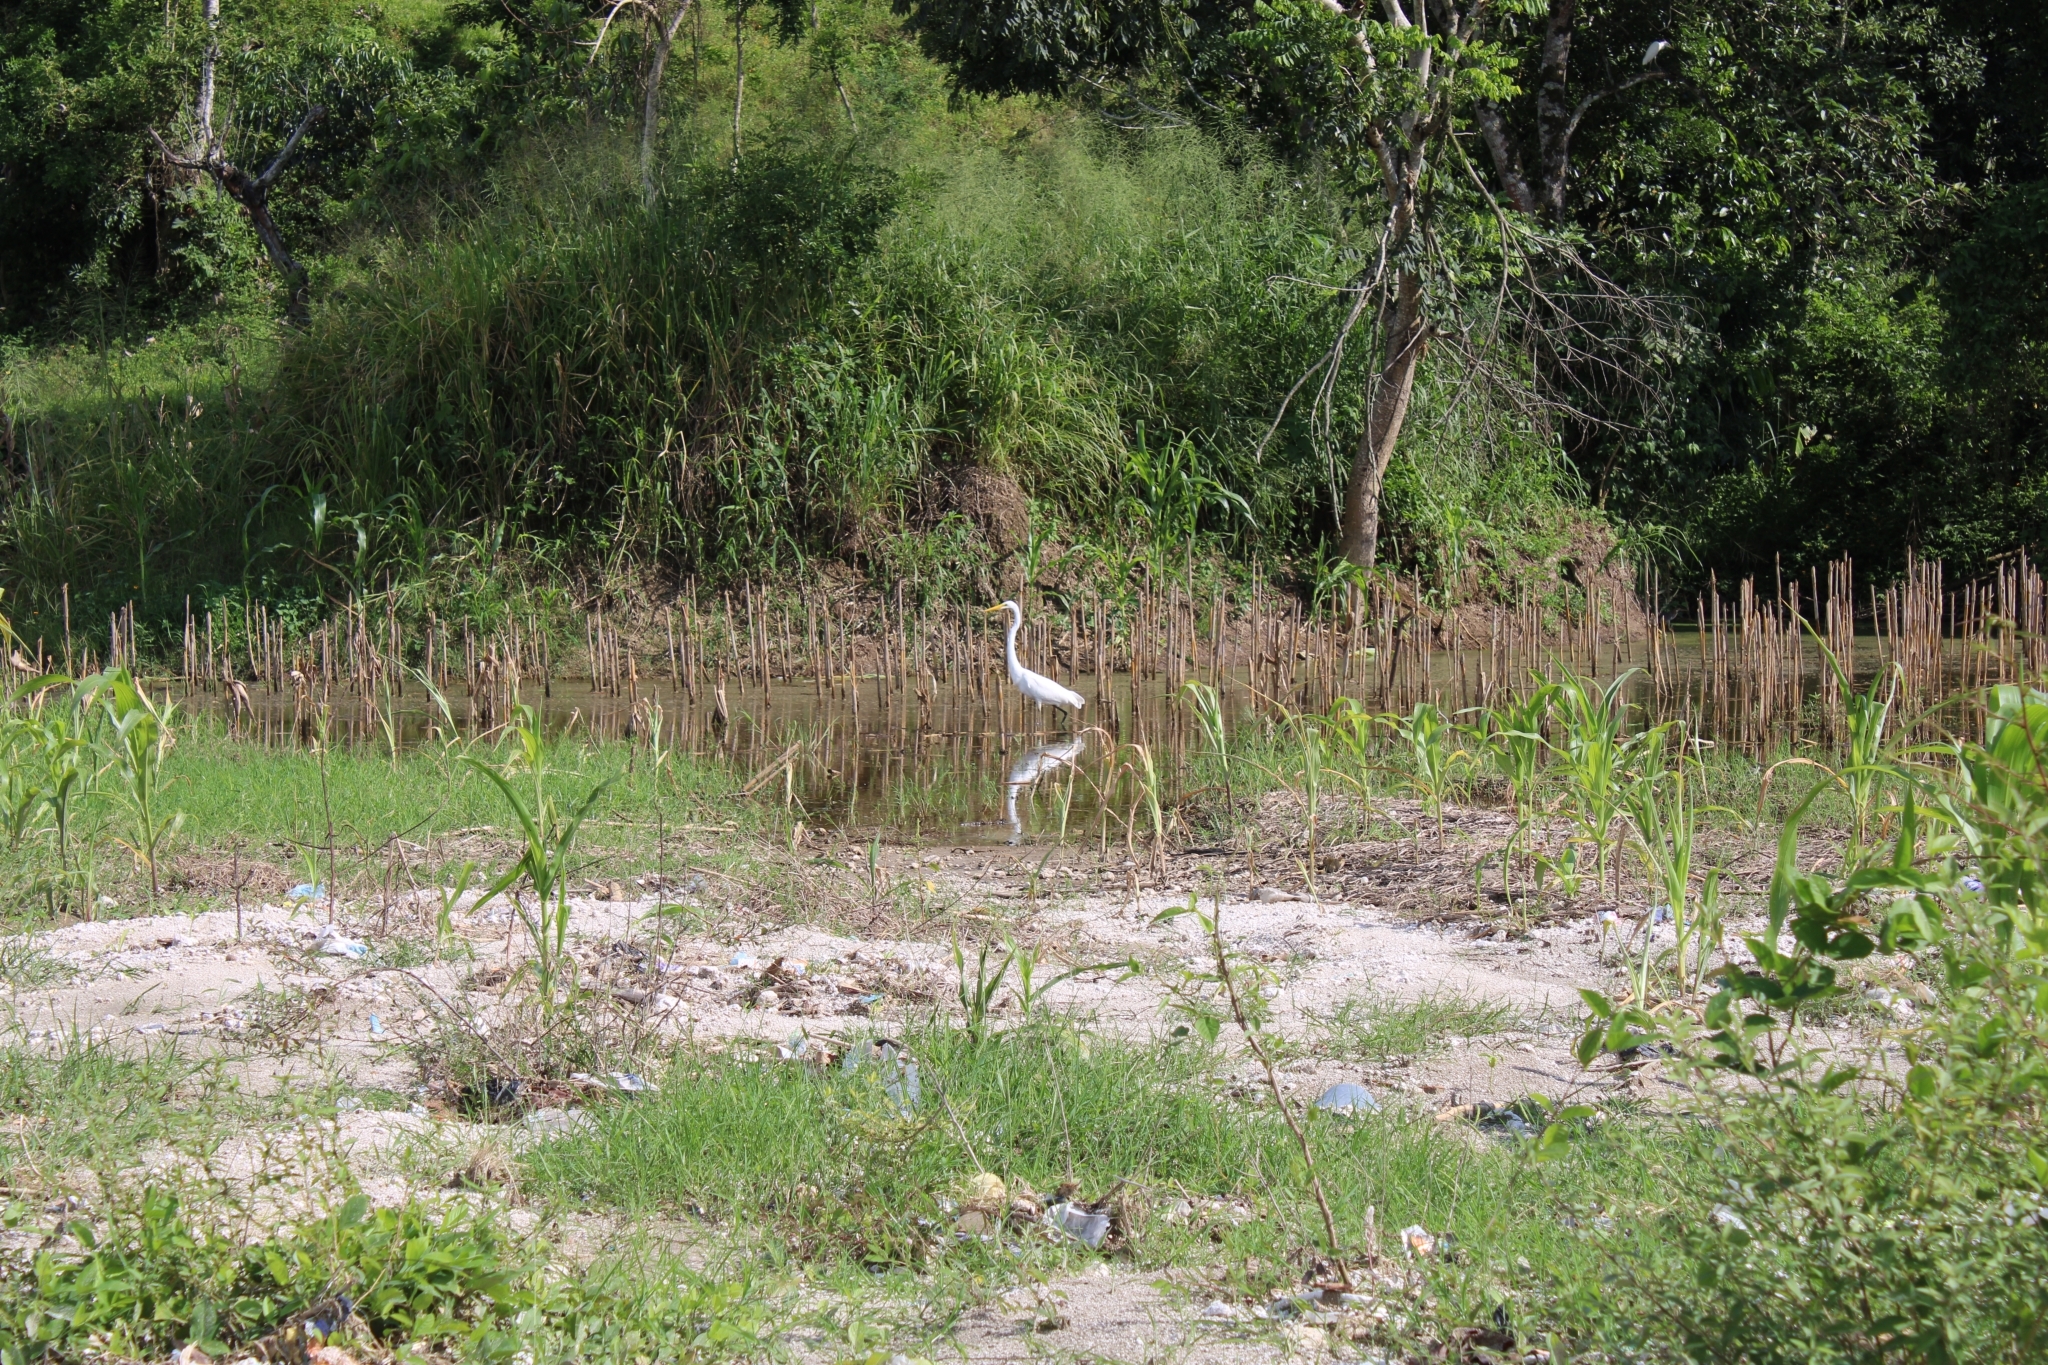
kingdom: Animalia
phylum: Chordata
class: Aves
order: Pelecaniformes
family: Ardeidae
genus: Ardea
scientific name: Ardea alba
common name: Great egret
